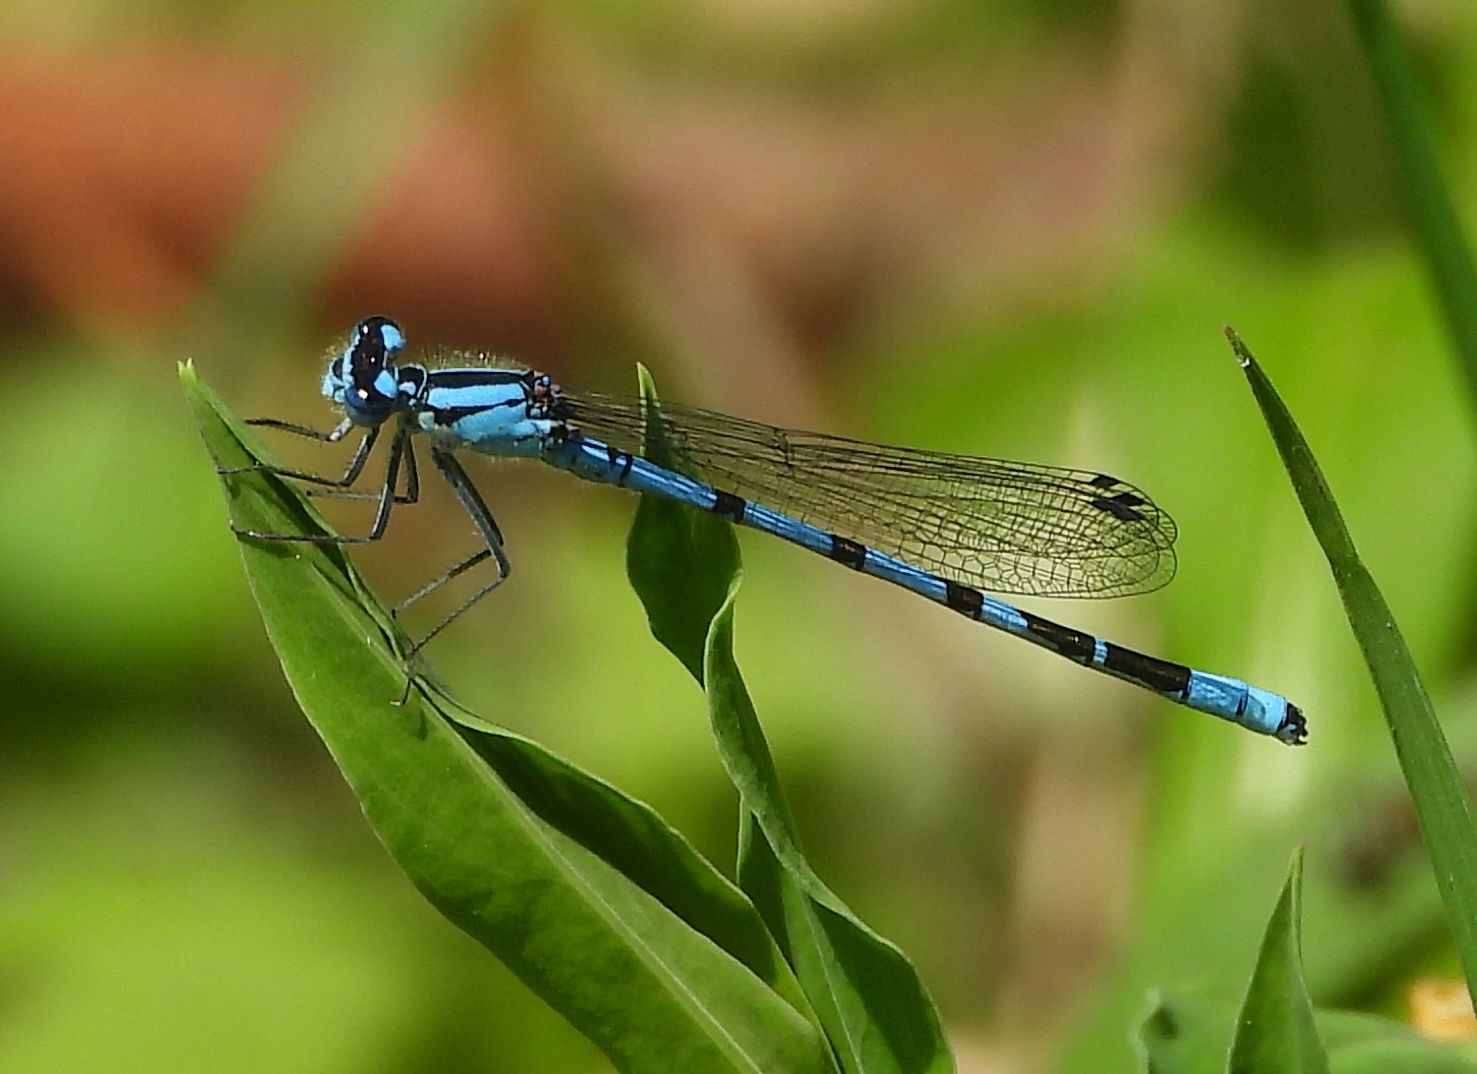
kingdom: Animalia
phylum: Arthropoda
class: Insecta
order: Odonata
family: Coenagrionidae
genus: Enallagma
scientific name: Enallagma boreale
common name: Boreal bluet
